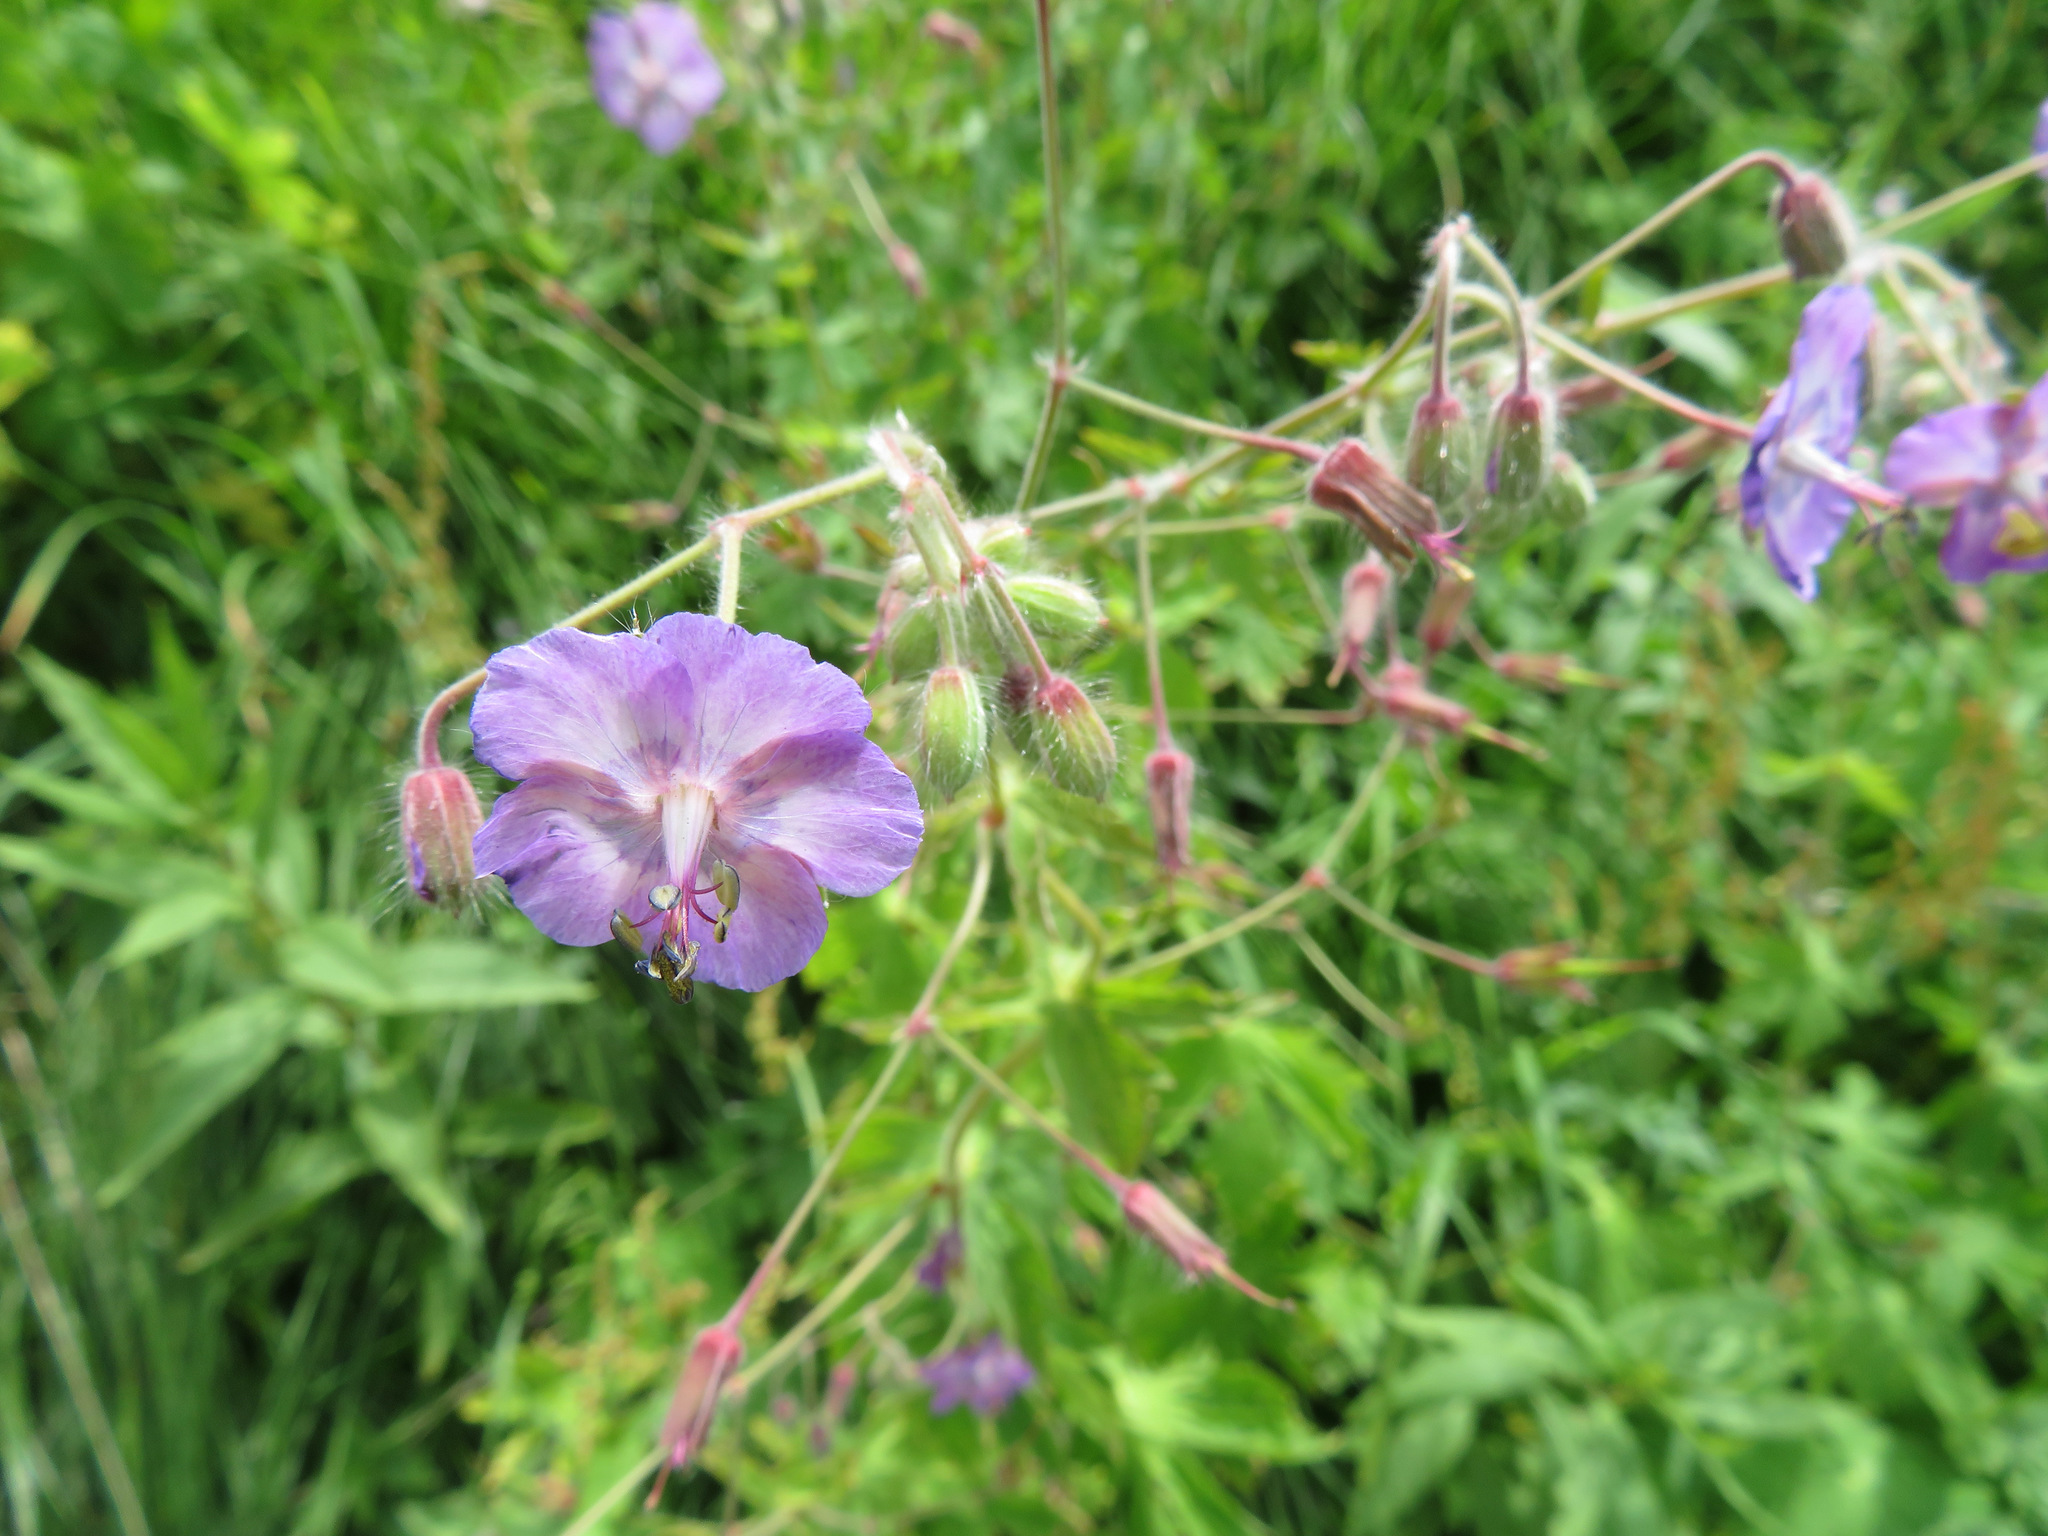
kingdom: Plantae
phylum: Tracheophyta
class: Magnoliopsida
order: Geraniales
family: Geraniaceae
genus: Geranium
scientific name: Geranium phaeum
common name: Dusky crane's-bill
